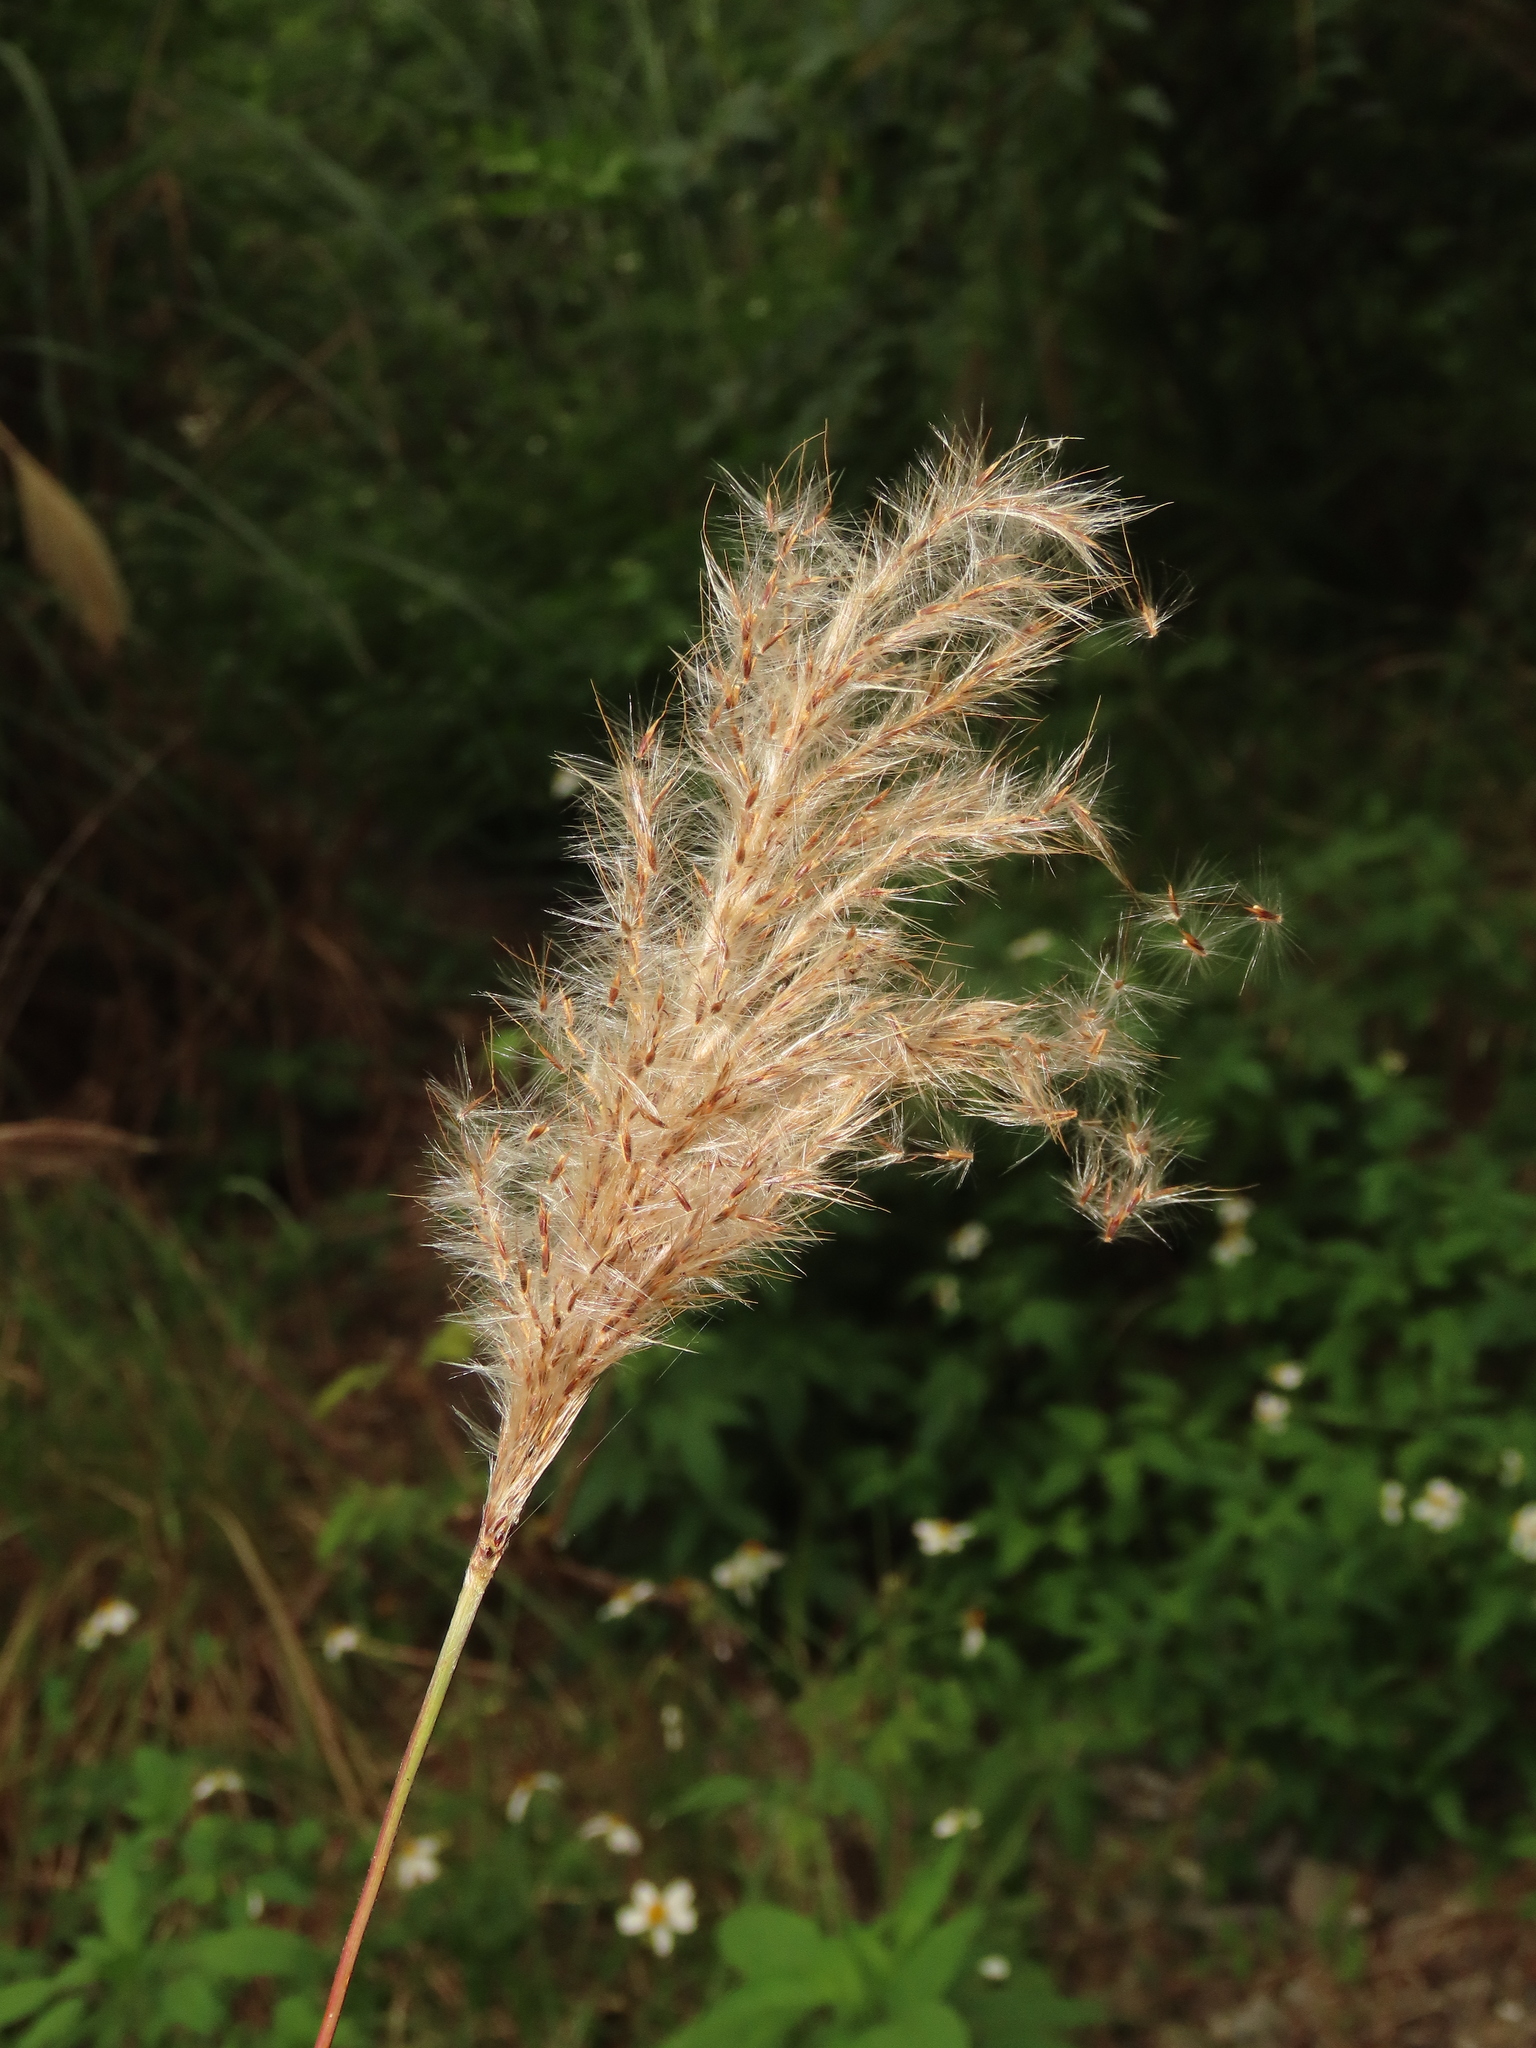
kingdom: Plantae
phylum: Tracheophyta
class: Liliopsida
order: Poales
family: Poaceae
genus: Saccharum
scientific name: Saccharum formosanum
